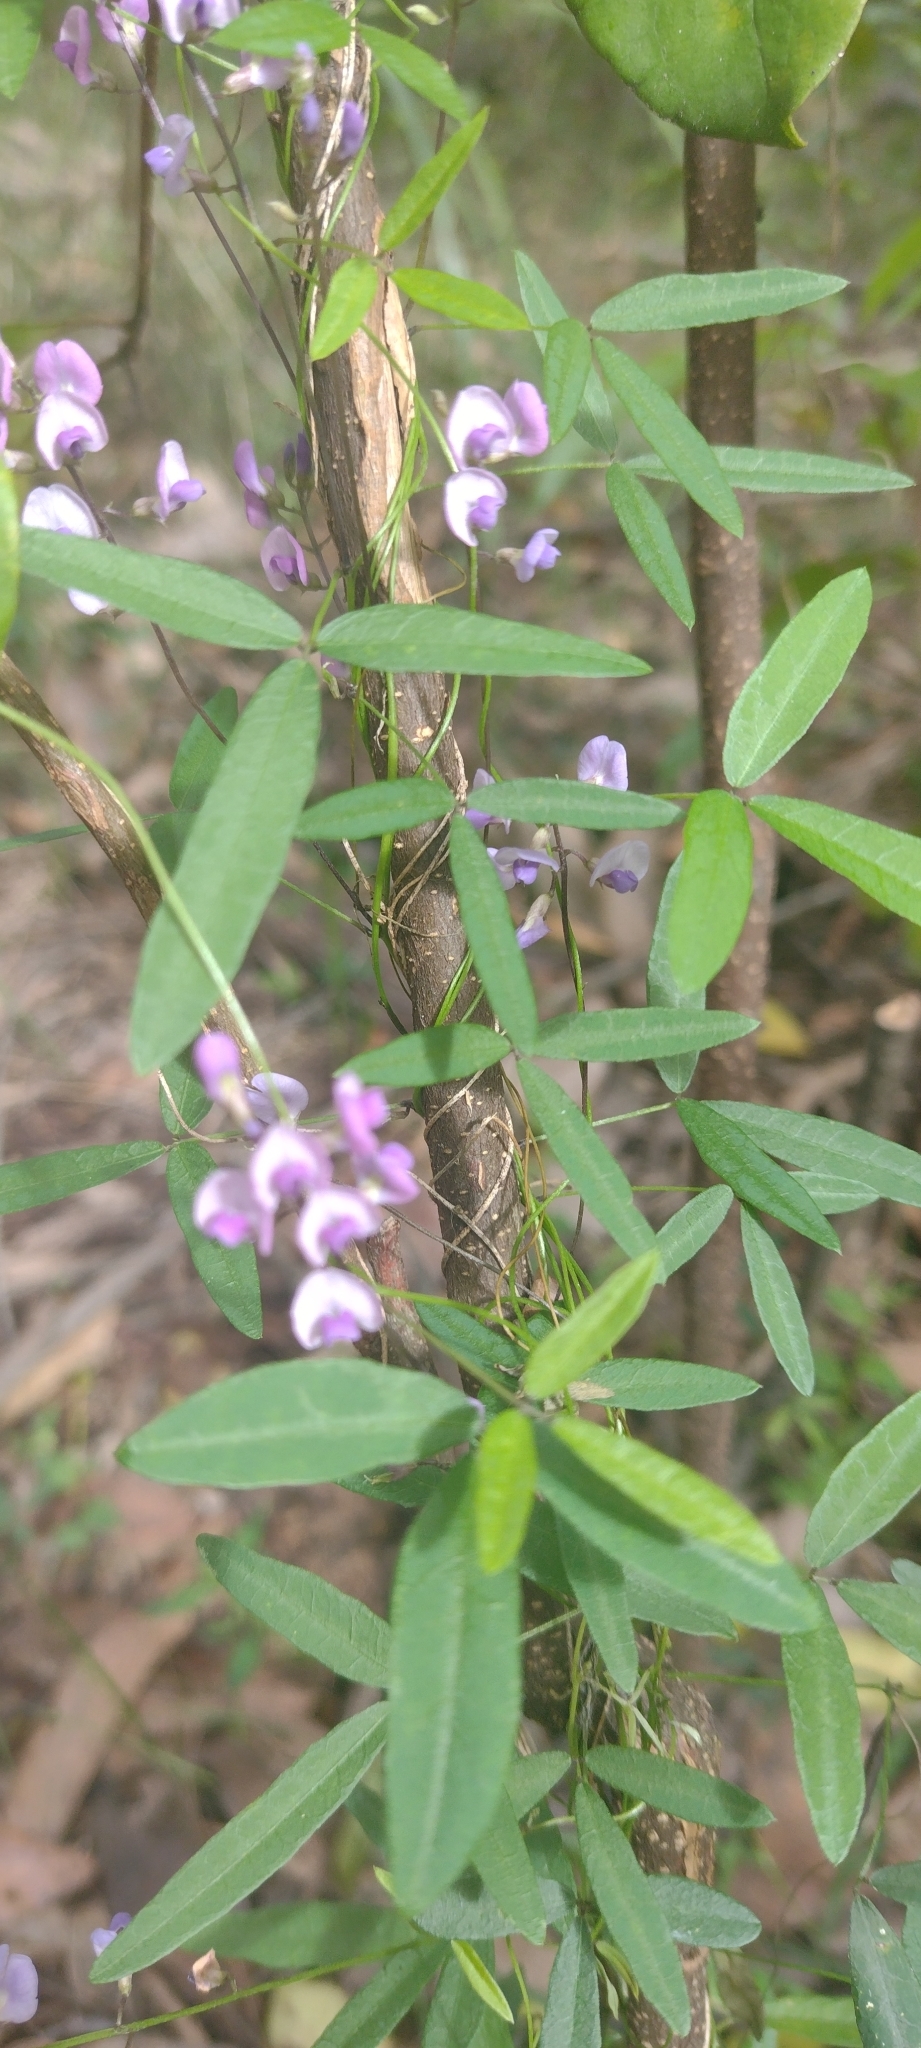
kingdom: Plantae
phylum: Tracheophyta
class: Magnoliopsida
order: Fabales
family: Fabaceae
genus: Glycine
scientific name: Glycine microphylla
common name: Small-leaf glycine
